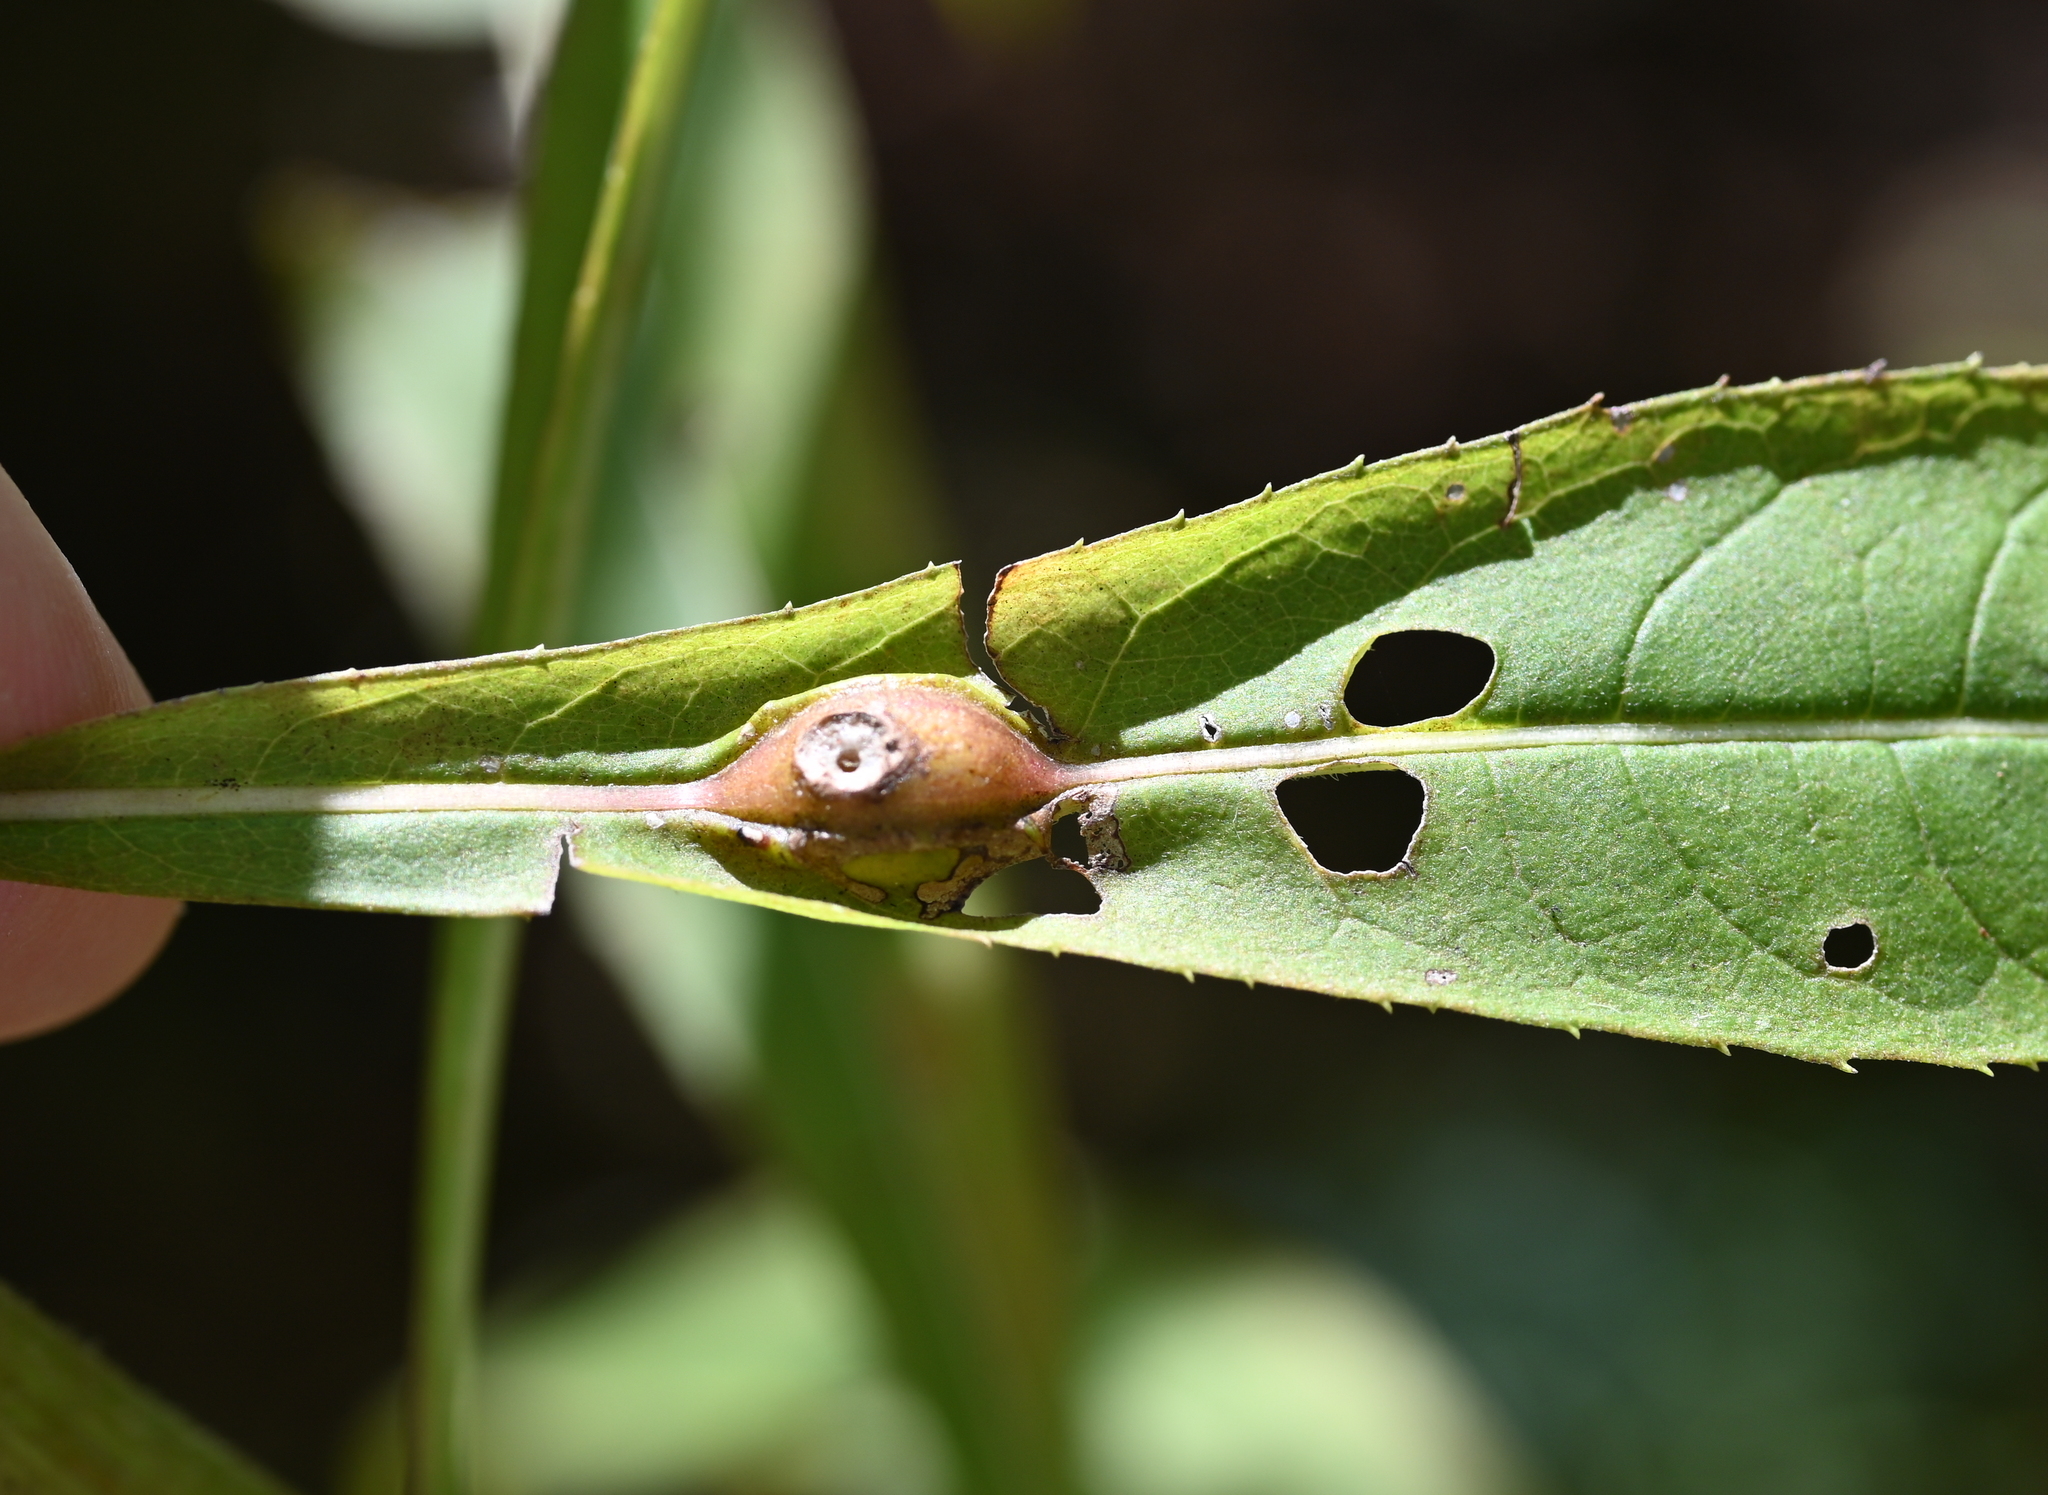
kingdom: Animalia
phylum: Arthropoda
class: Insecta
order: Diptera
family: Cecidomyiidae
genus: Neolasioptera
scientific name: Neolasioptera vernoniae
